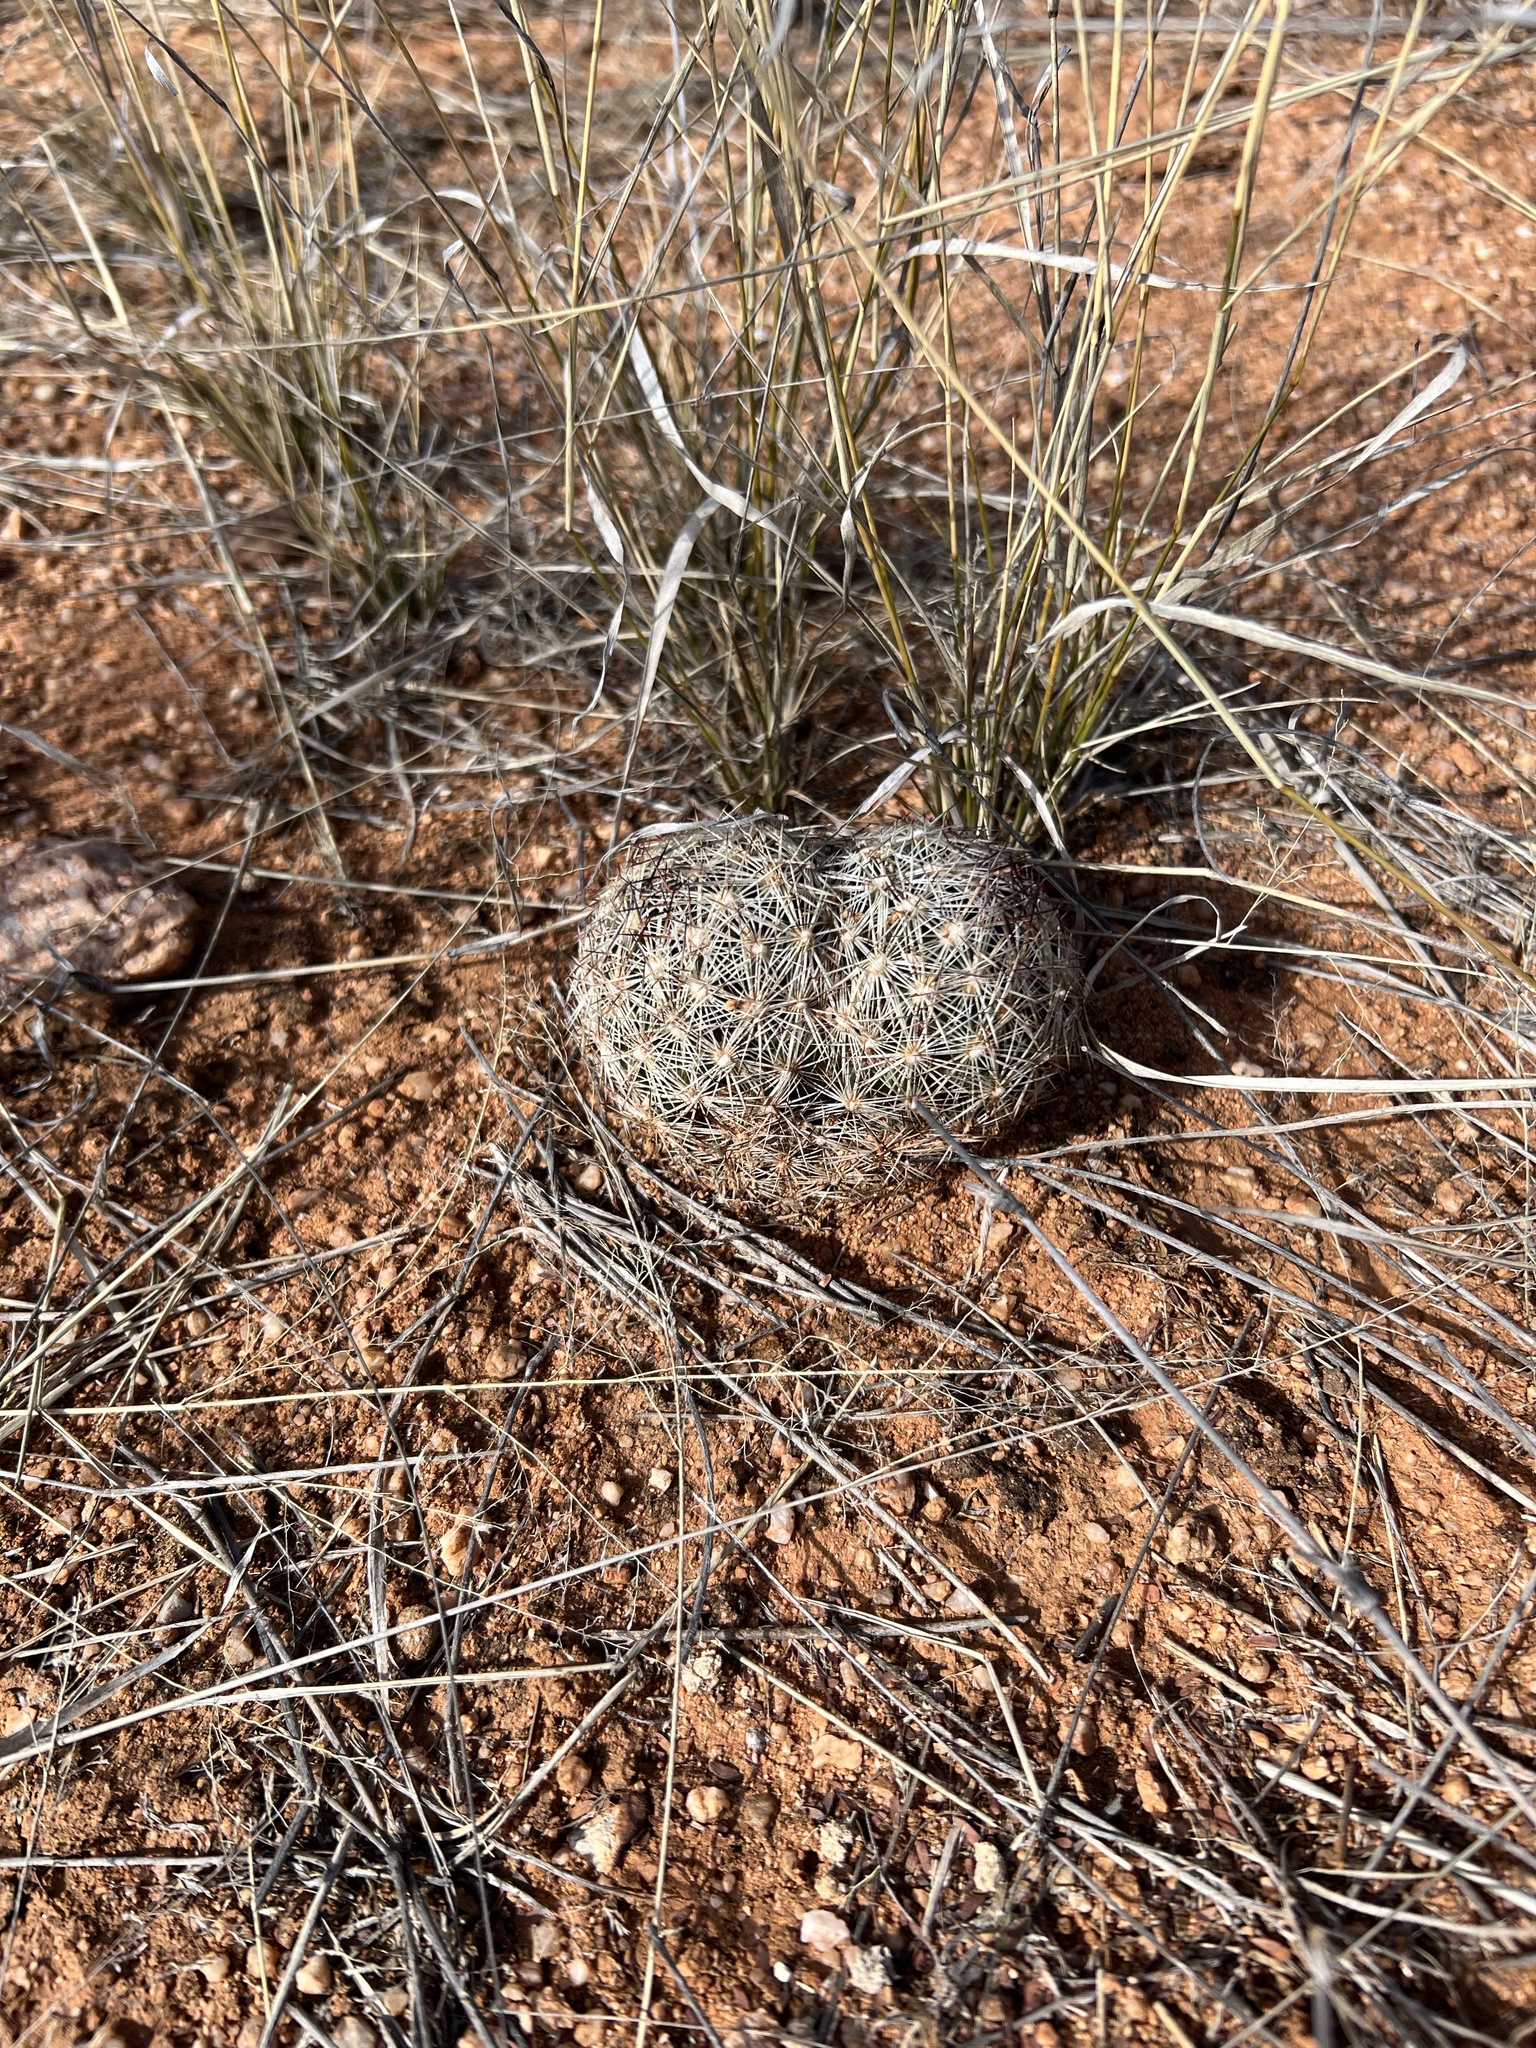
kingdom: Plantae
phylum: Tracheophyta
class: Magnoliopsida
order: Caryophyllales
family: Cactaceae
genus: Pelecyphora
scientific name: Pelecyphora vivipara
